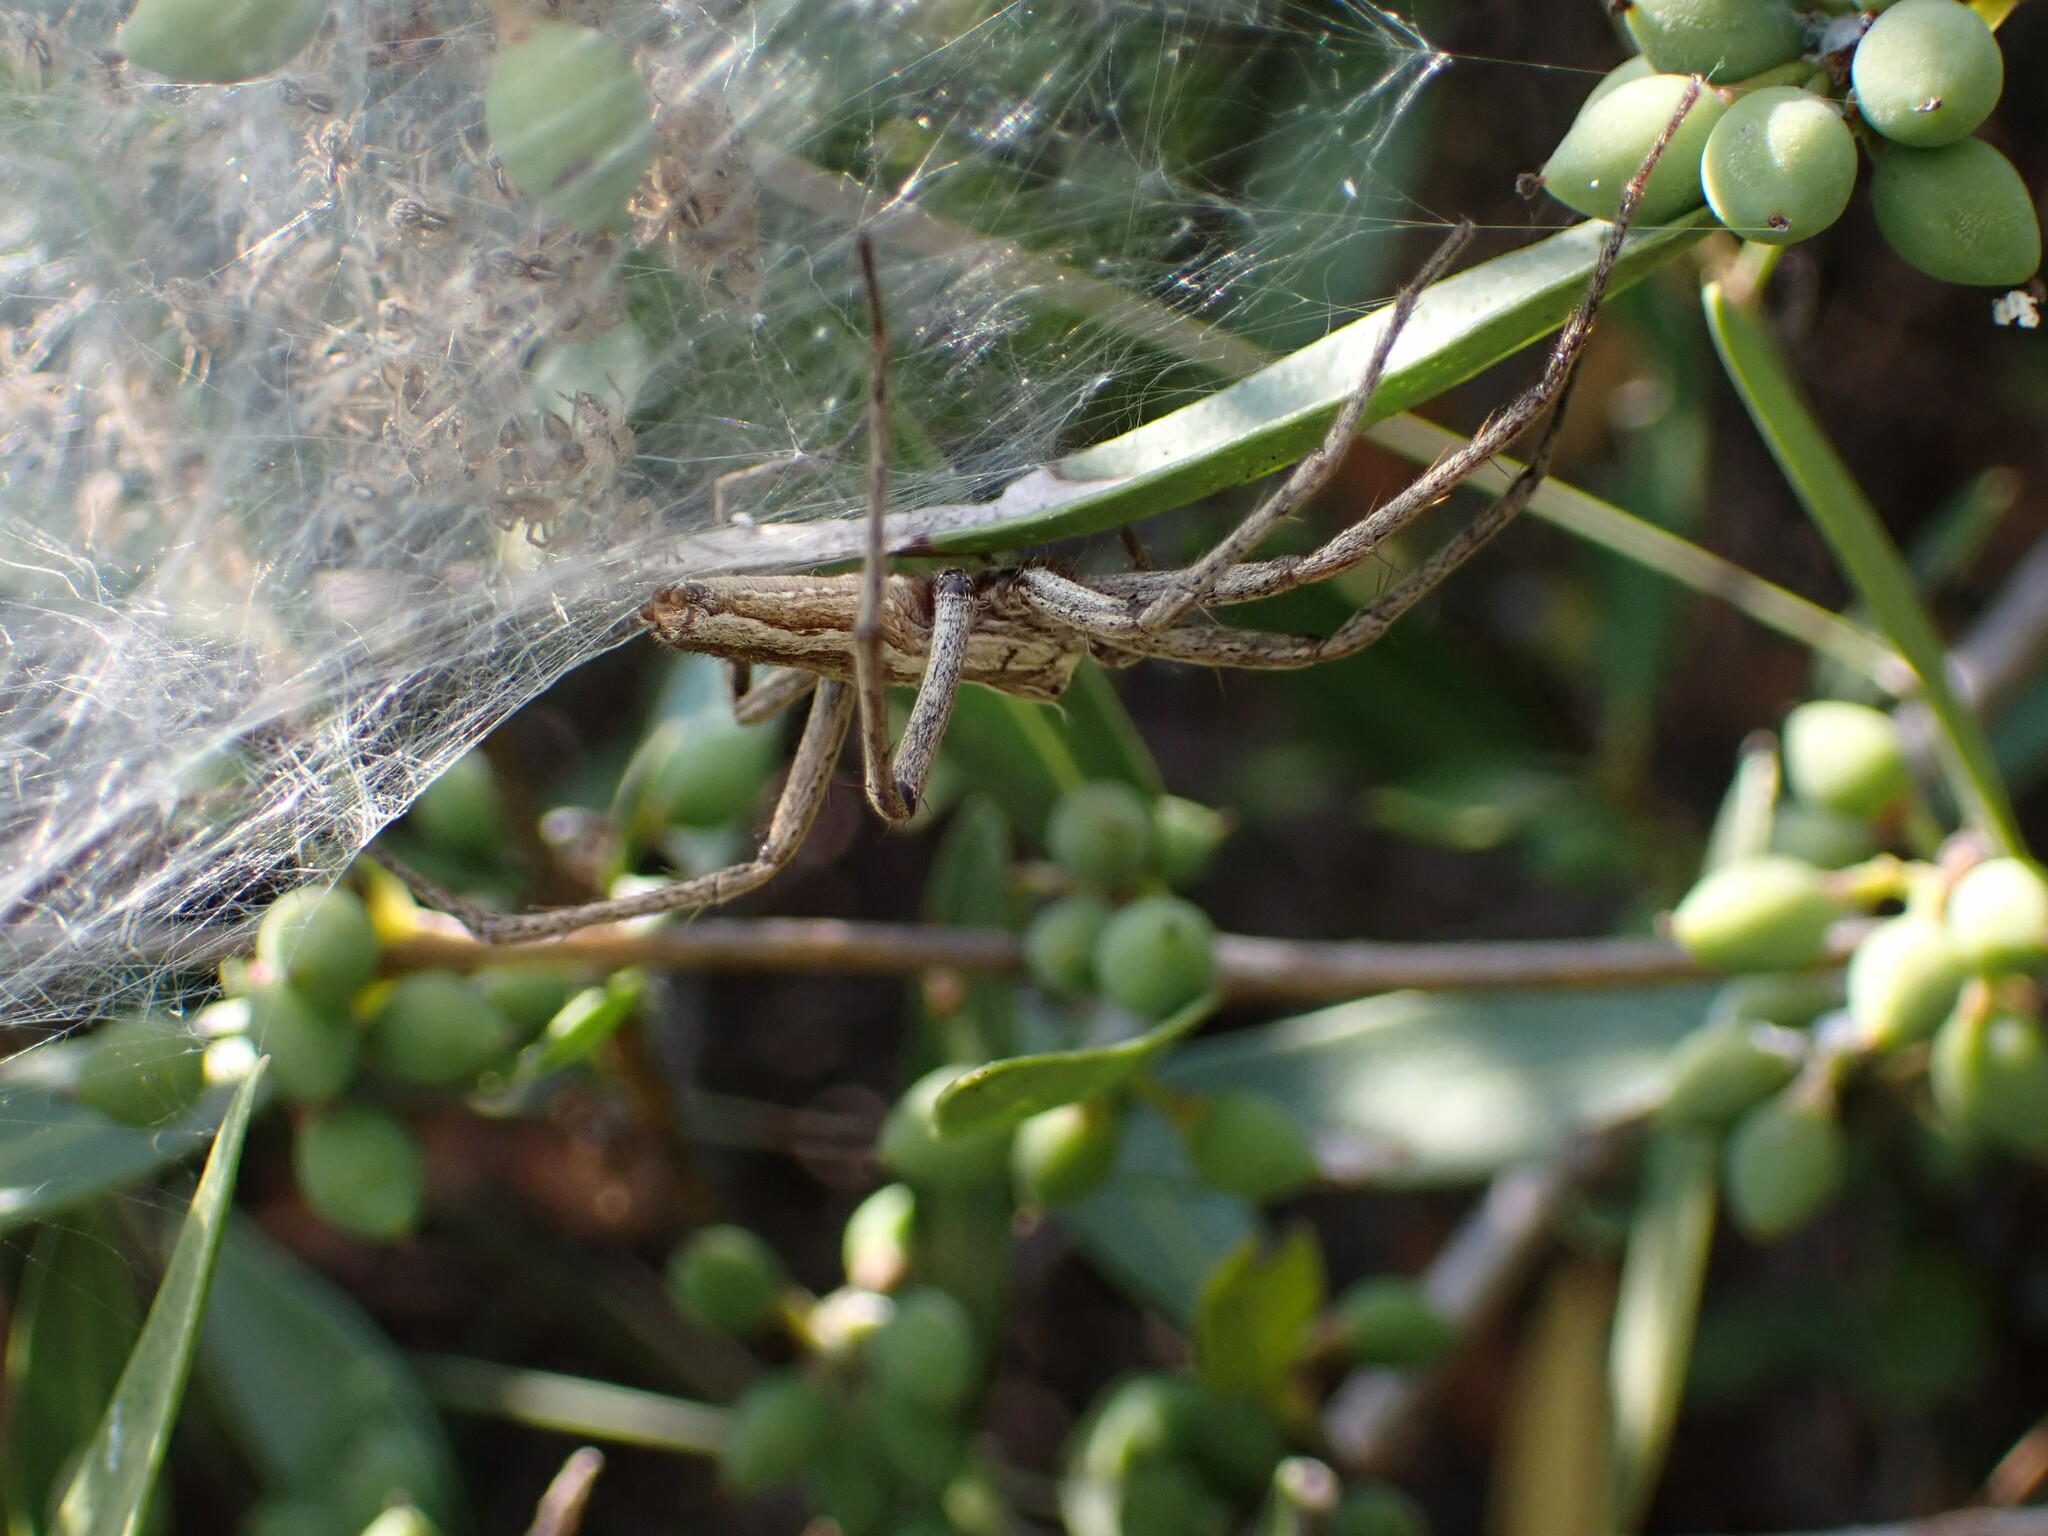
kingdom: Animalia
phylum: Arthropoda
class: Arachnida
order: Araneae
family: Pisauridae
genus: Pisaura
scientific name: Pisaura
